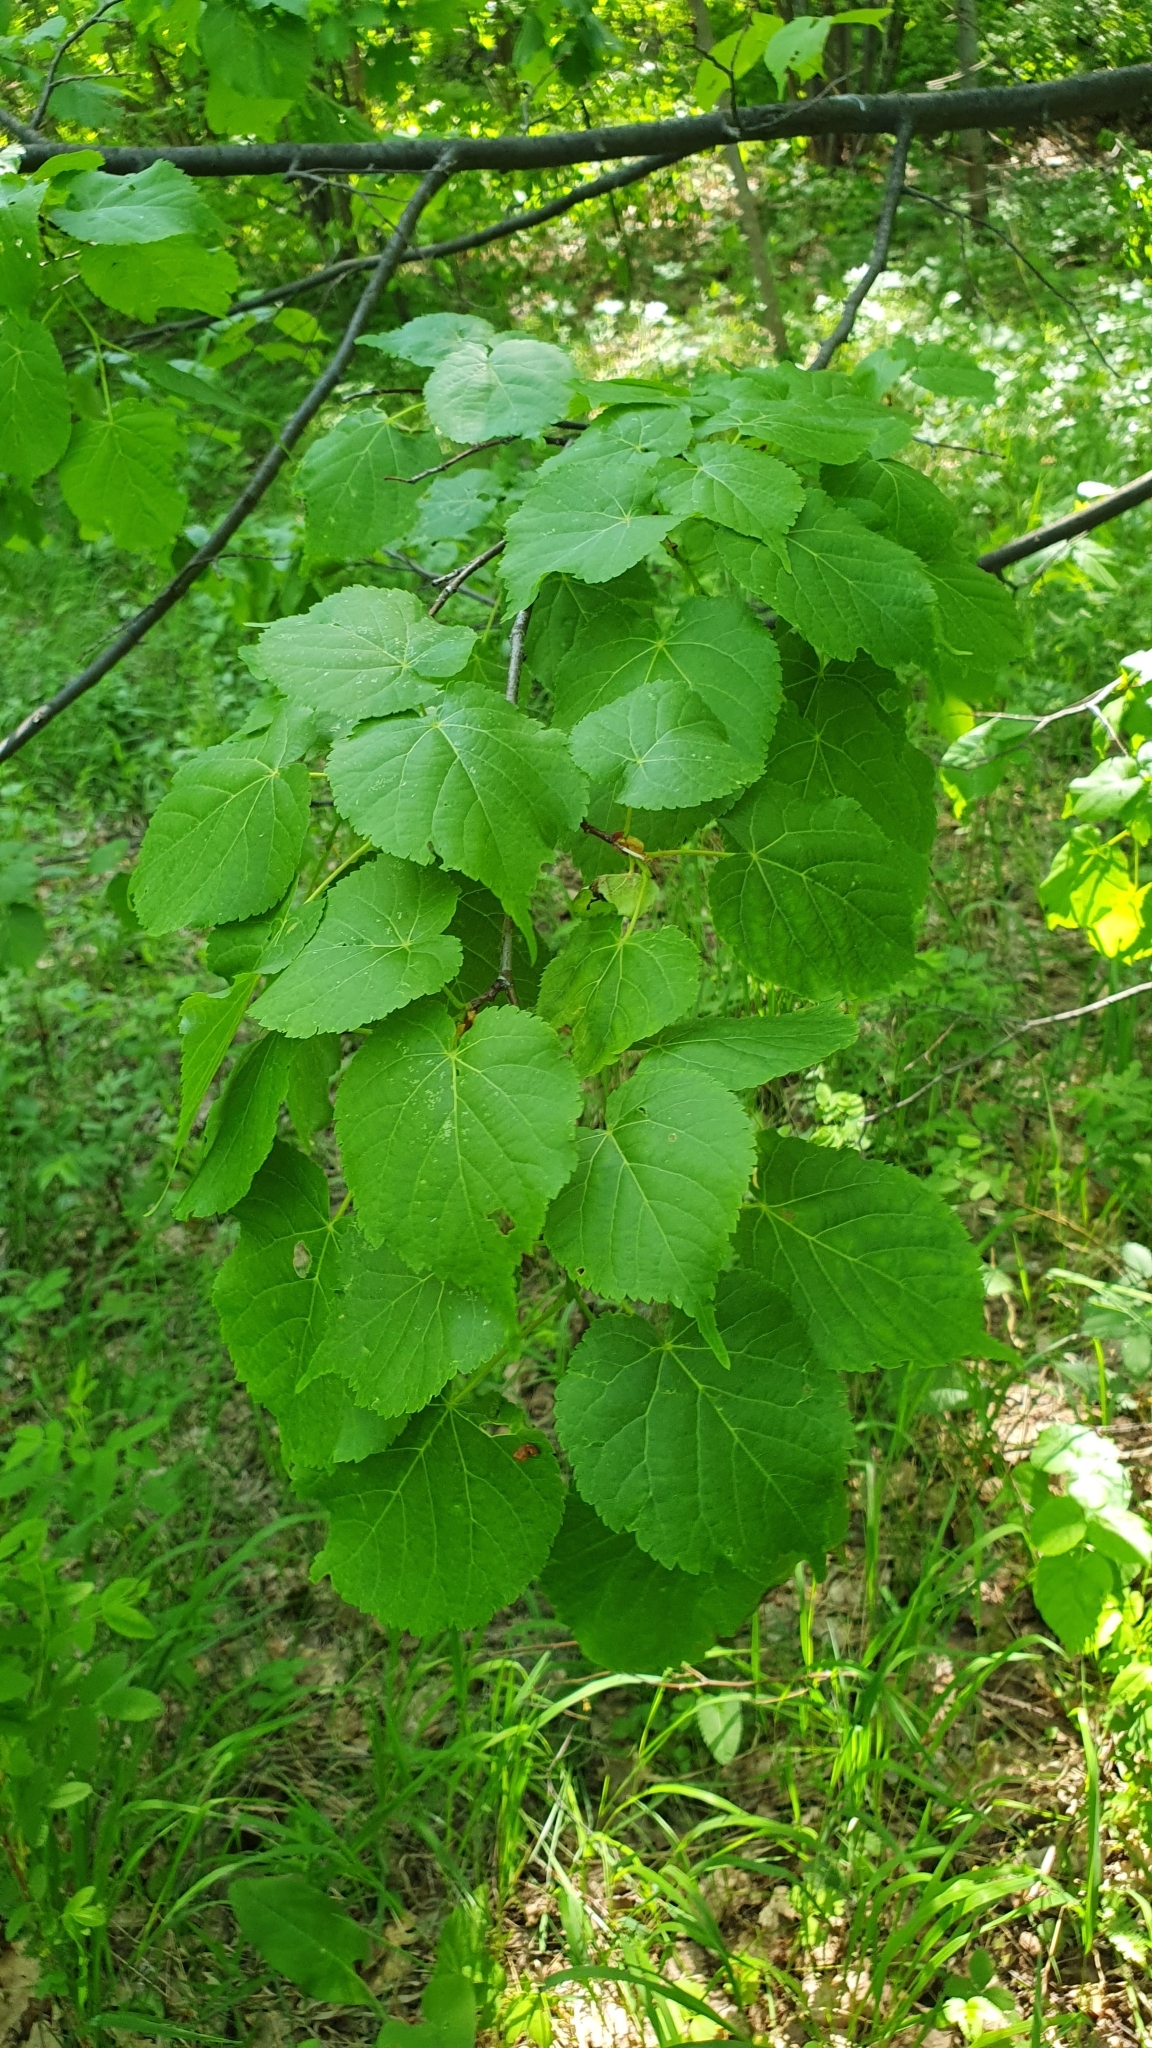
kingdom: Plantae
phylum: Tracheophyta
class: Magnoliopsida
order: Malvales
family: Malvaceae
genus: Tilia
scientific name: Tilia cordata
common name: Small-leaved lime
